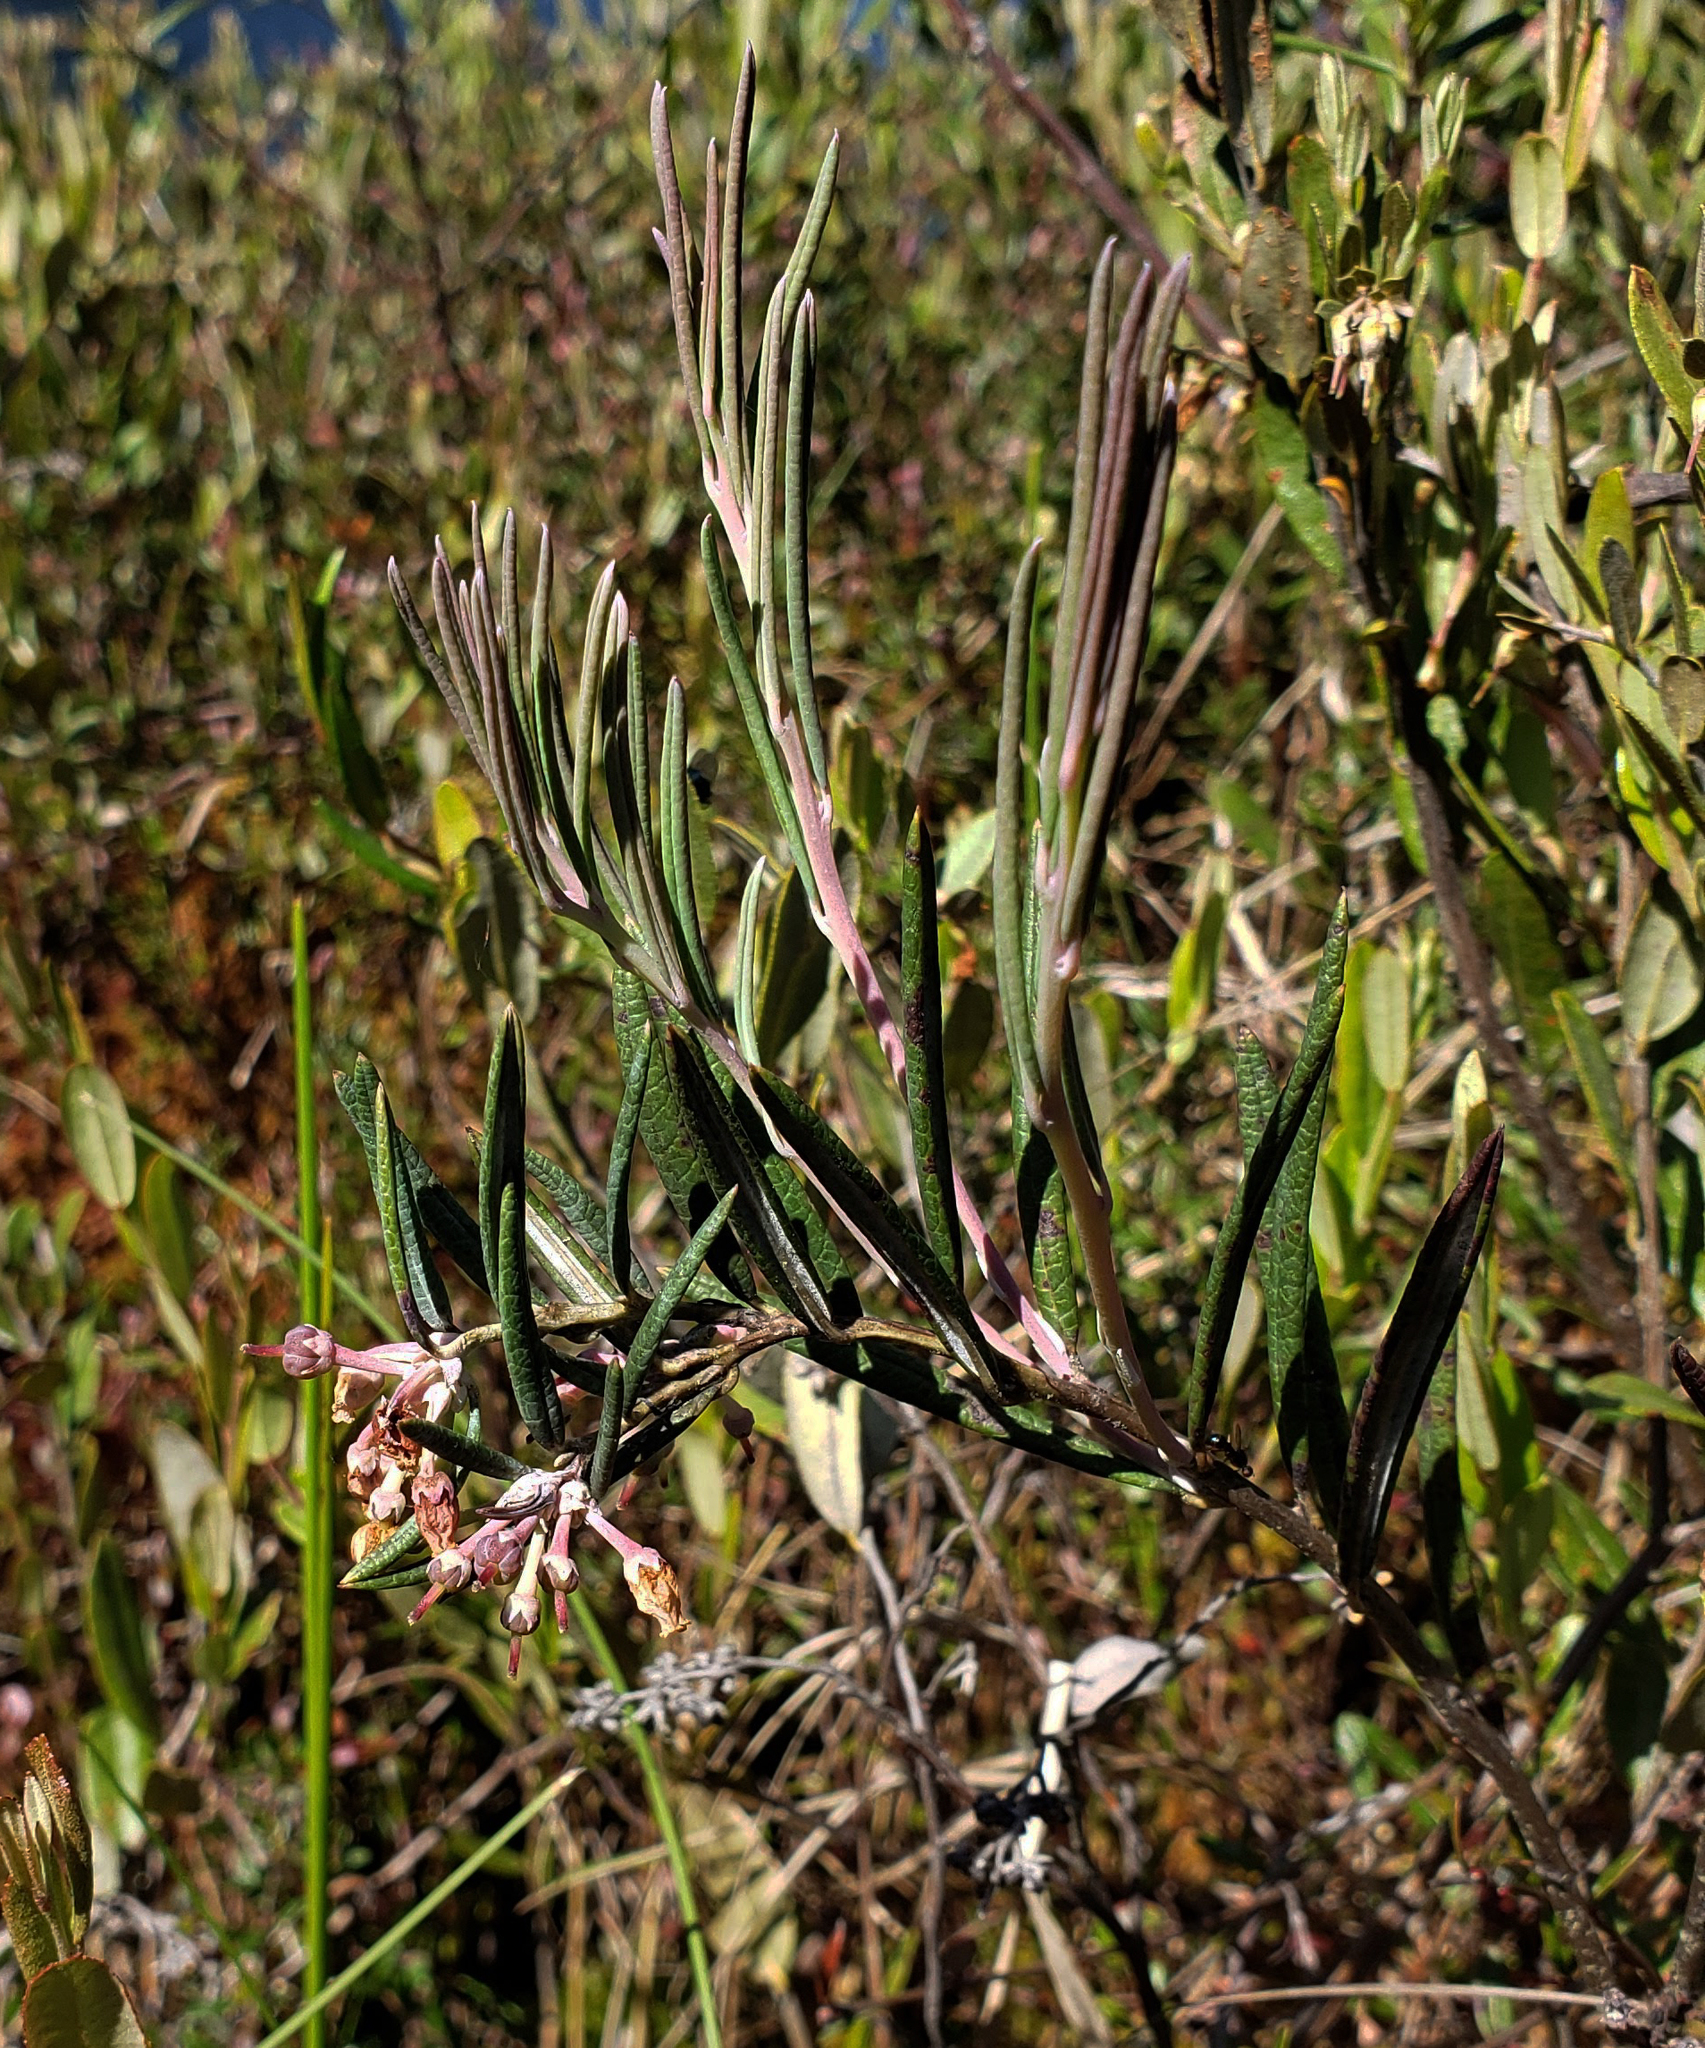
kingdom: Plantae
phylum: Tracheophyta
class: Magnoliopsida
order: Ericales
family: Ericaceae
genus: Andromeda
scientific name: Andromeda polifolia
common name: Bog-rosemary
